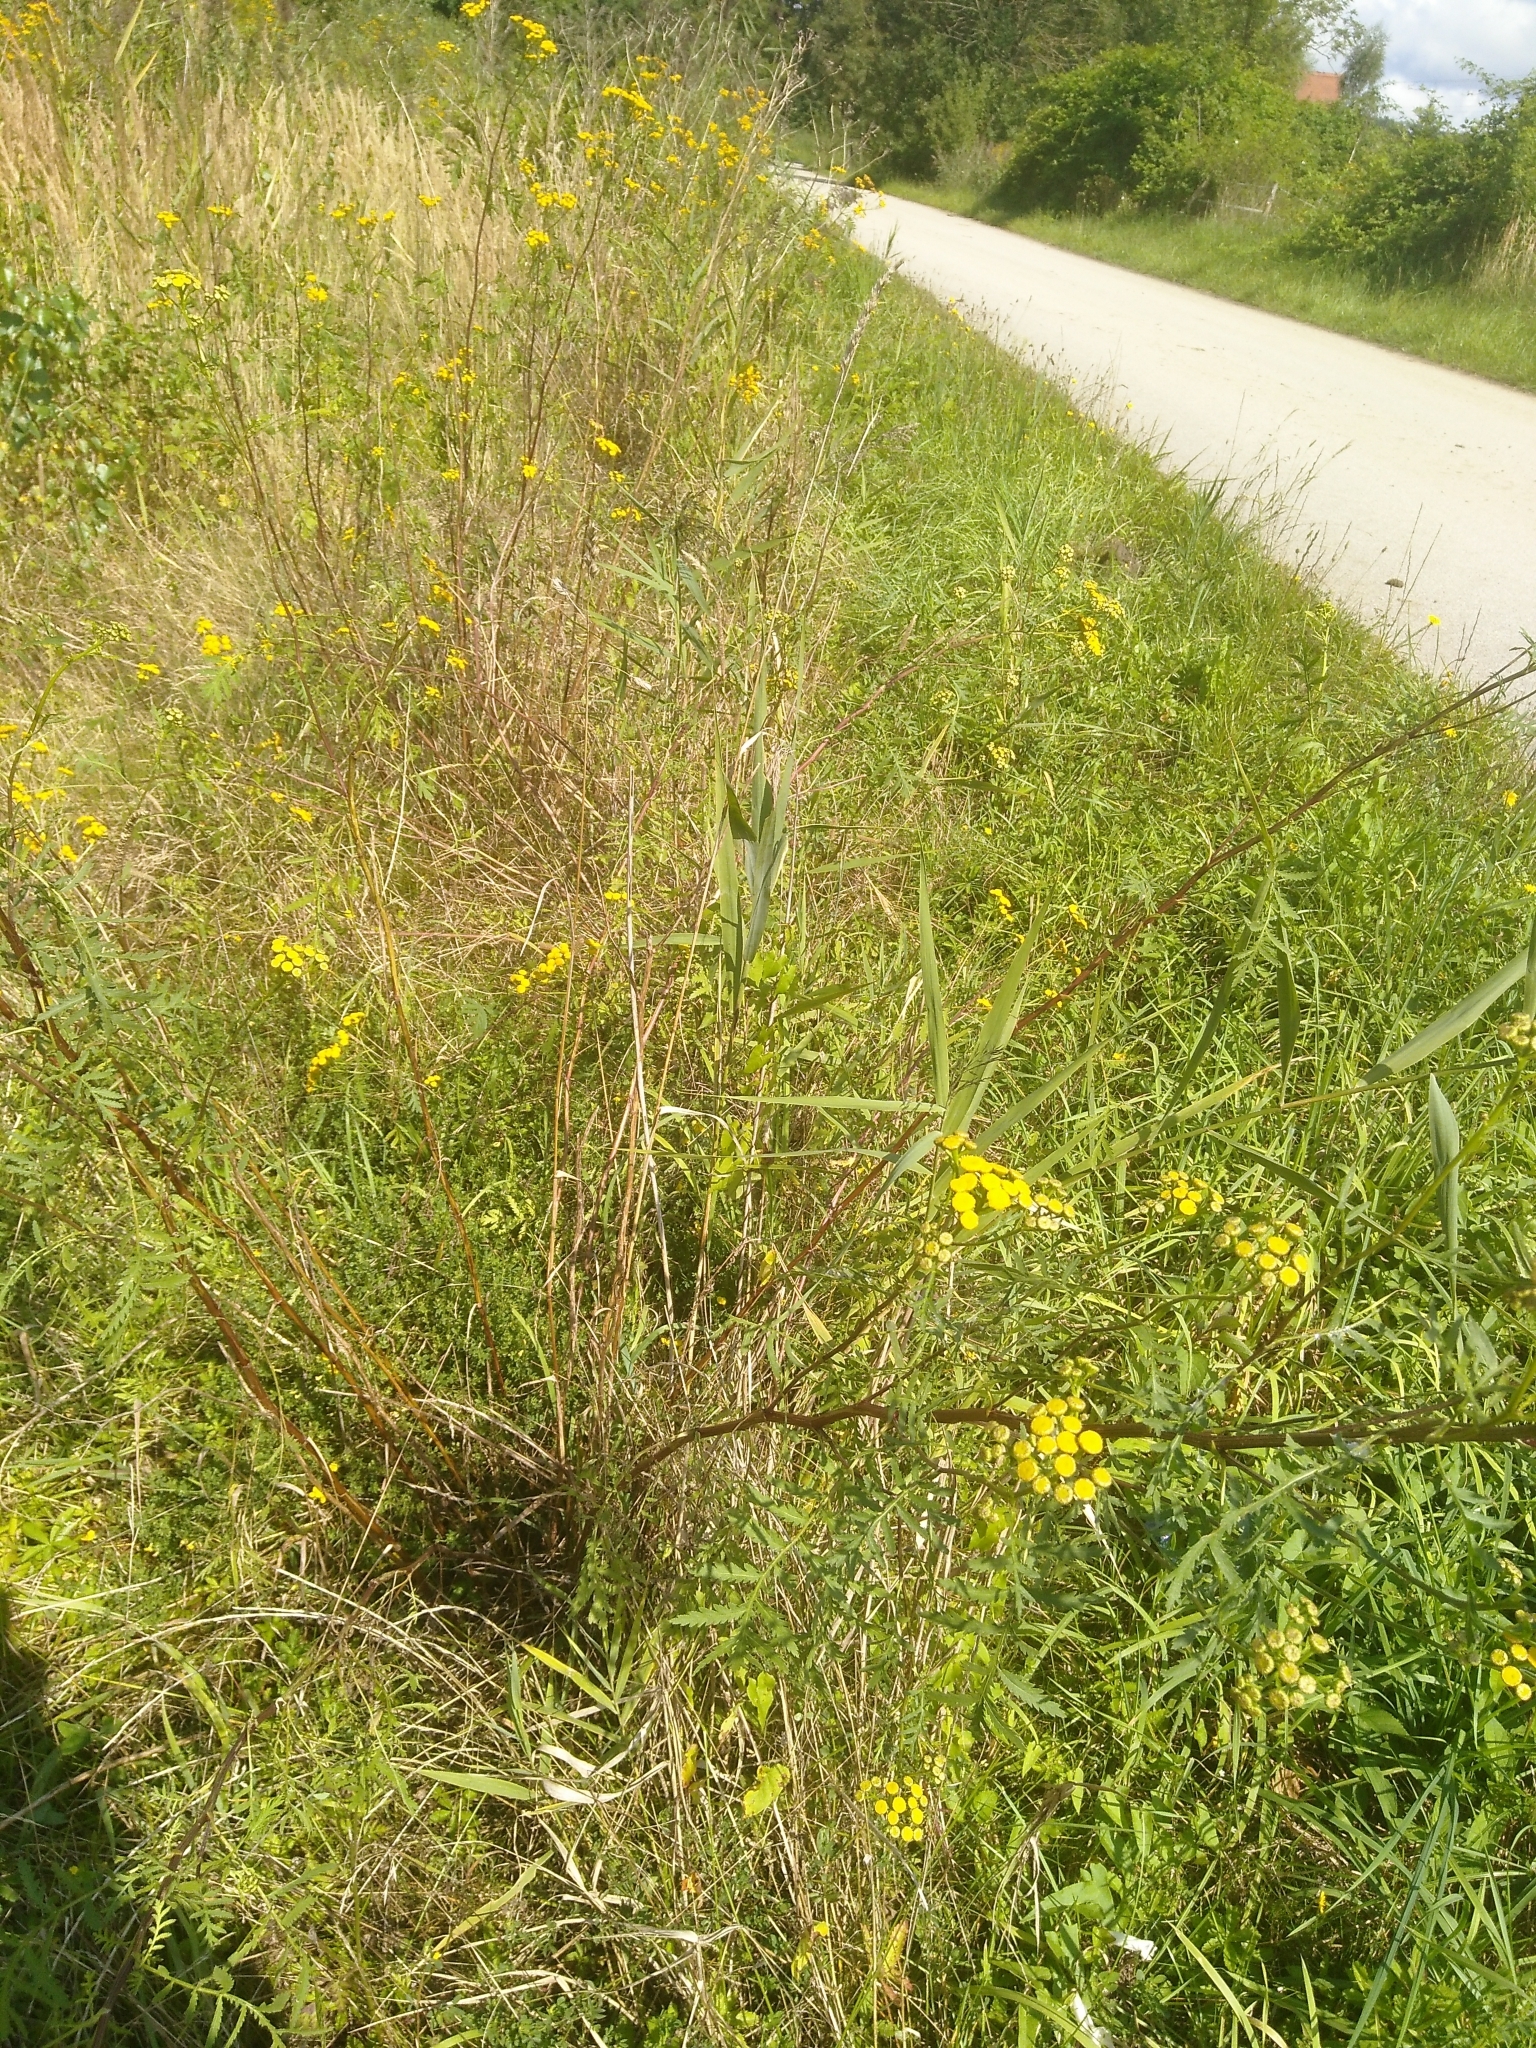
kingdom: Plantae
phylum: Tracheophyta
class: Magnoliopsida
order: Asterales
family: Asteraceae
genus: Tanacetum
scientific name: Tanacetum vulgare
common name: Common tansy
